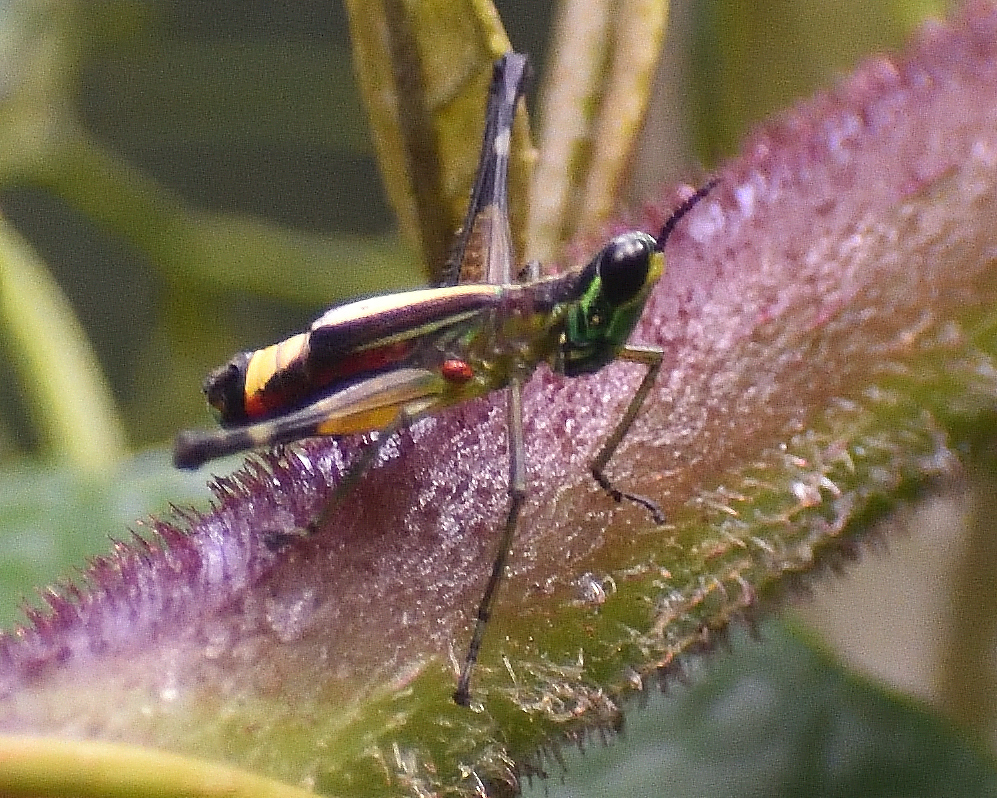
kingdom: Animalia
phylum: Arthropoda
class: Insecta
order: Orthoptera
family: Eumastacidae
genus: Paramastax
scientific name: Paramastax burri
